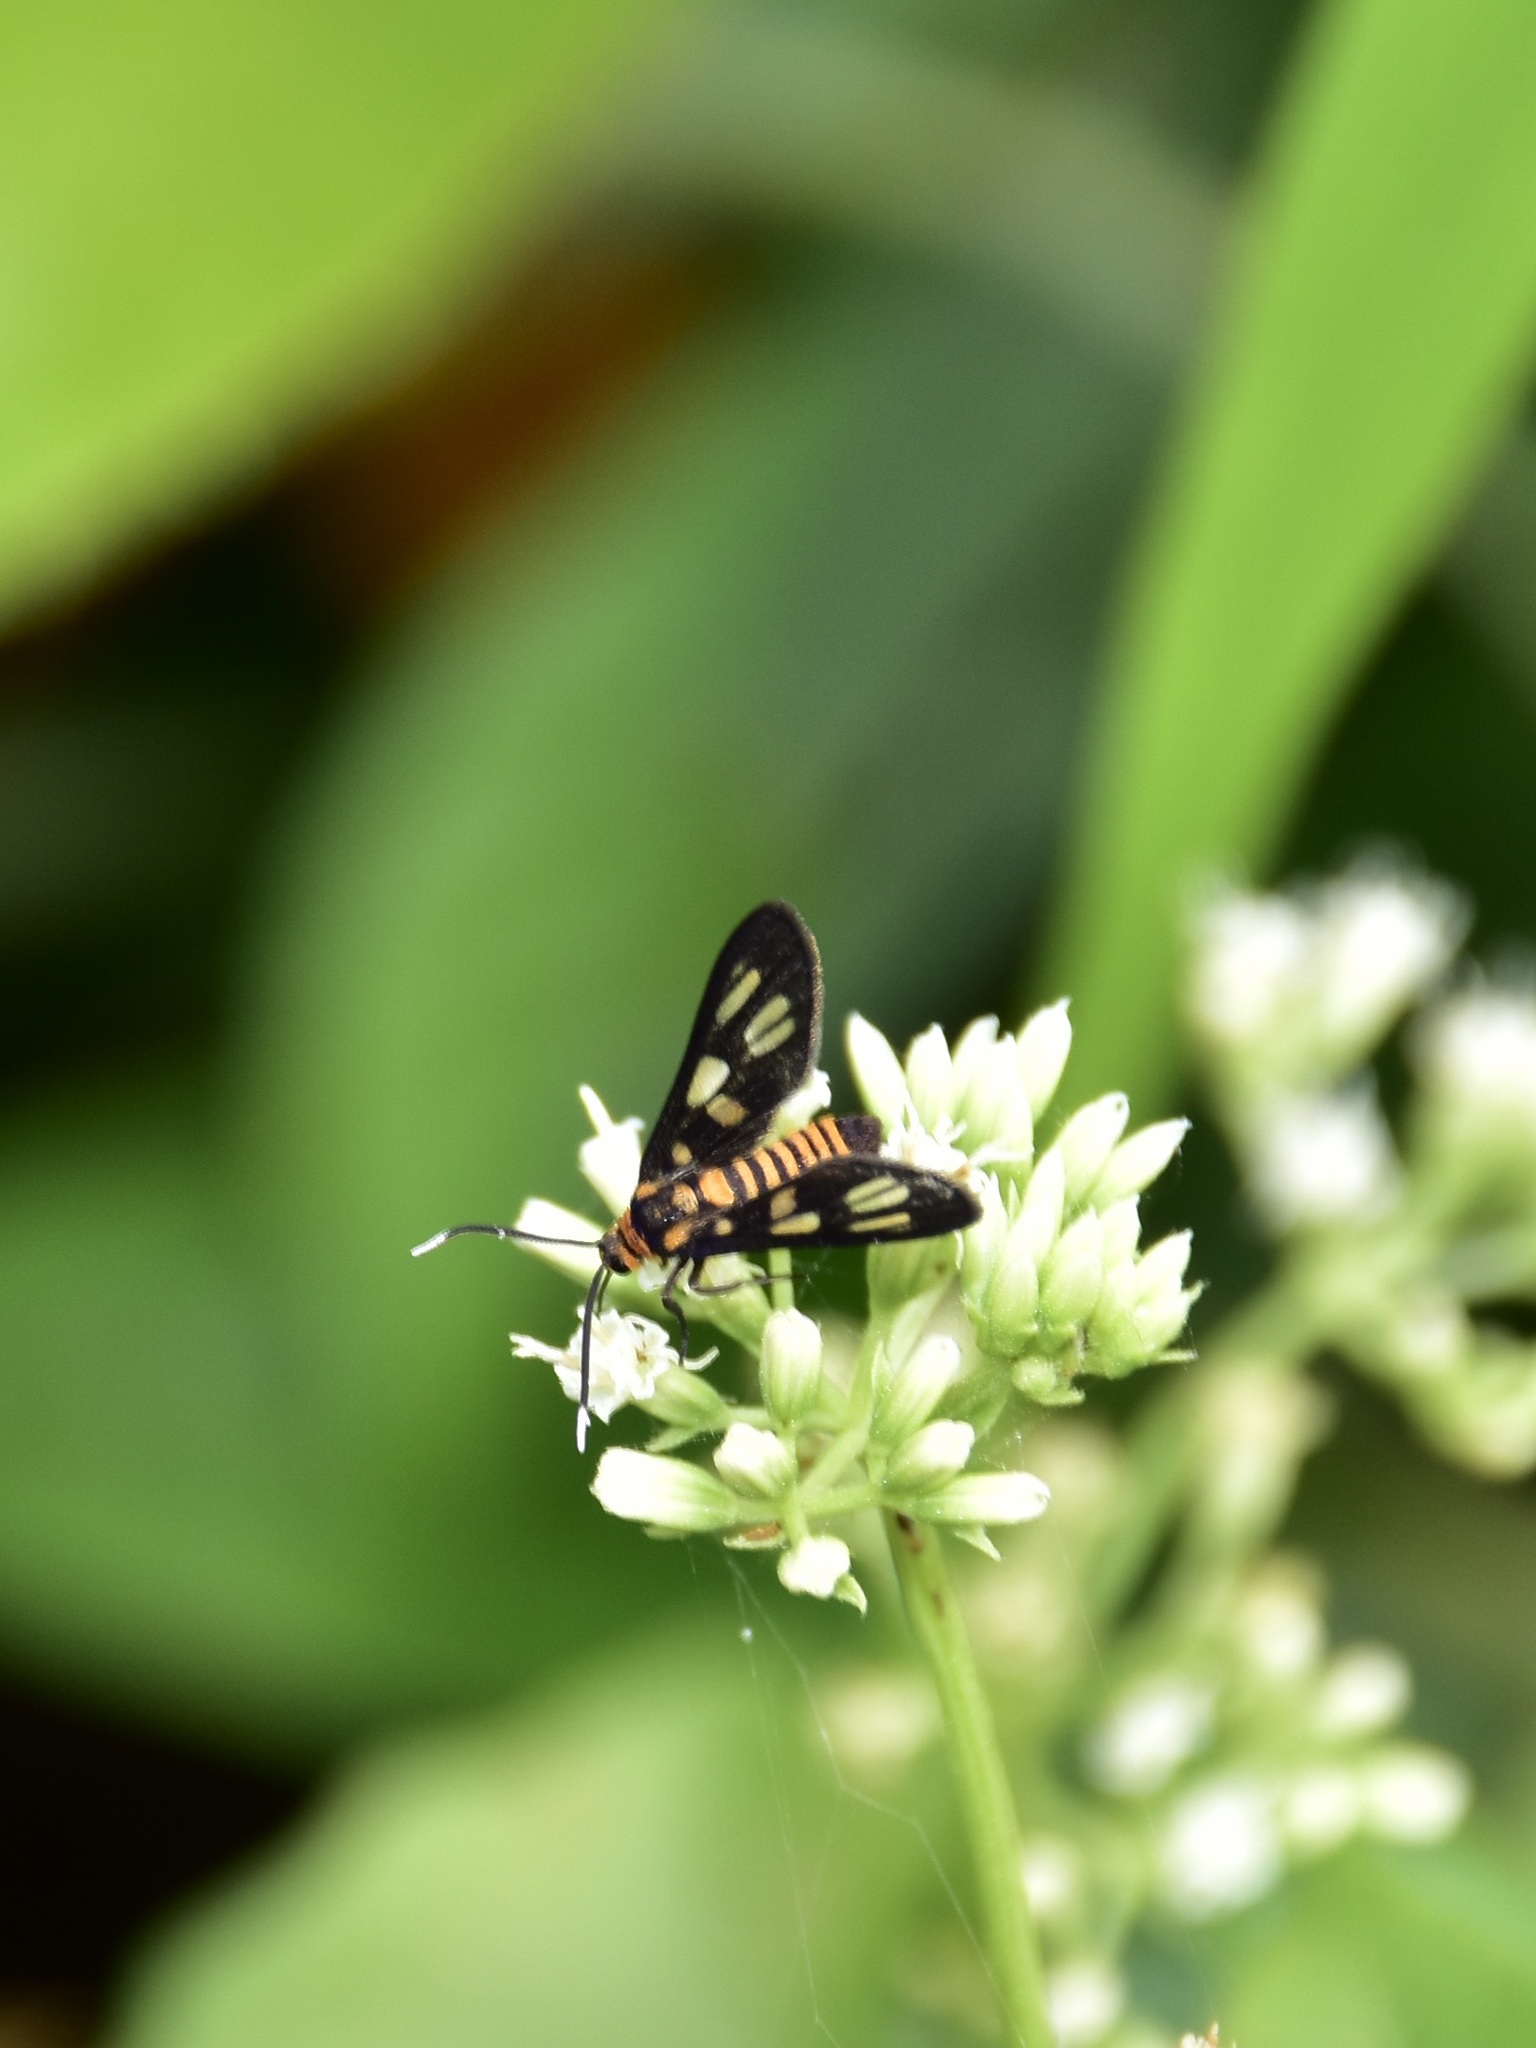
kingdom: Animalia
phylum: Arthropoda
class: Insecta
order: Lepidoptera
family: Erebidae
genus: Amata
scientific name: Amata huebneri
